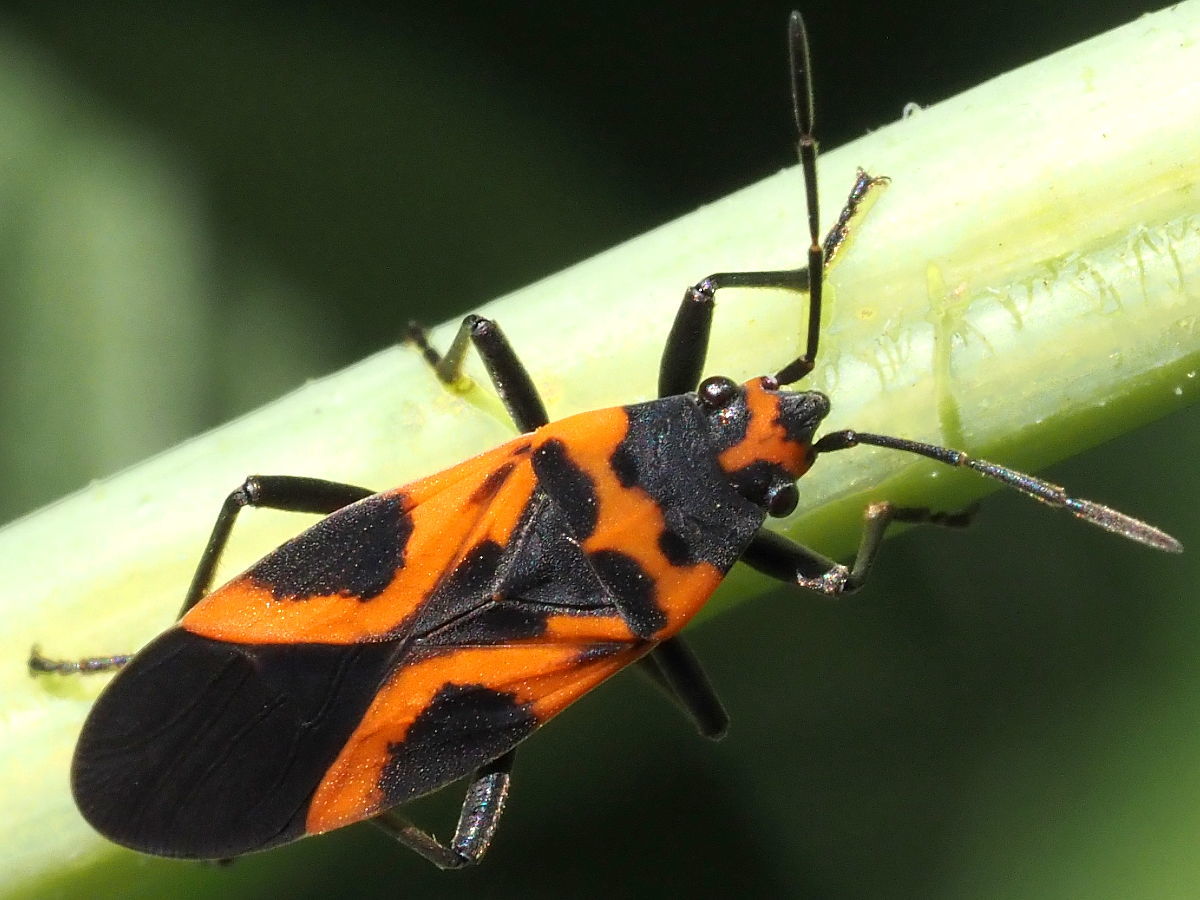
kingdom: Animalia
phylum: Arthropoda
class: Insecta
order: Hemiptera
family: Lygaeidae
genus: Lygaeus
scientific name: Lygaeus turcicus
